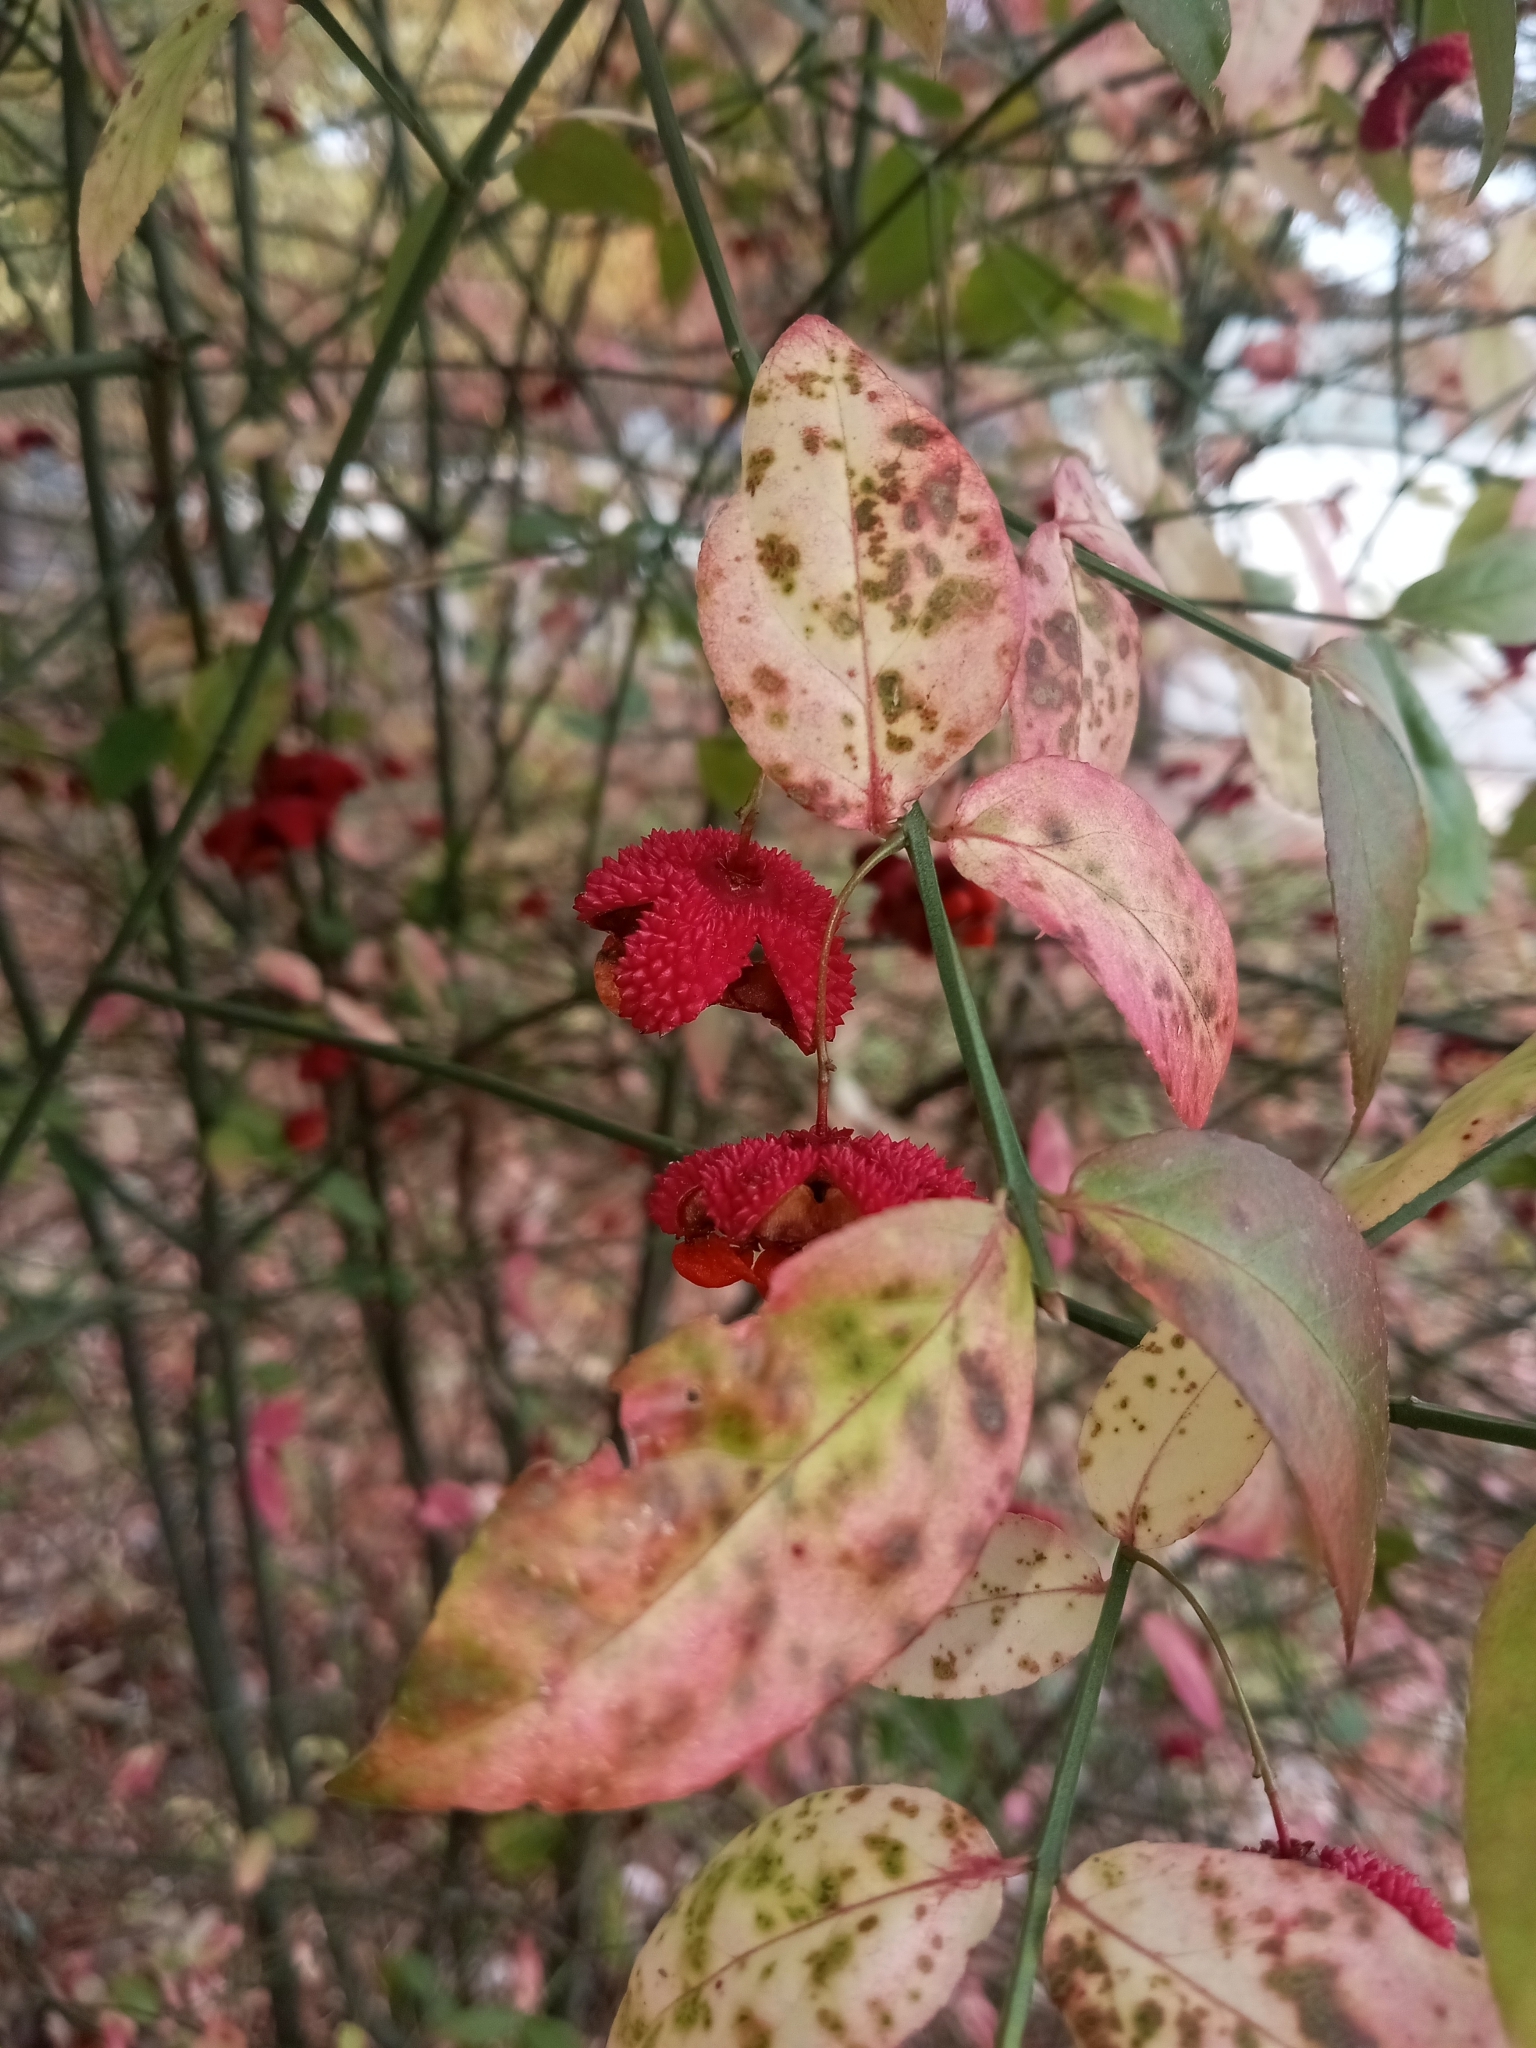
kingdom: Plantae
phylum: Tracheophyta
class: Magnoliopsida
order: Celastrales
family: Celastraceae
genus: Euonymus
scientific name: Euonymus americanus
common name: Bursting-heart
